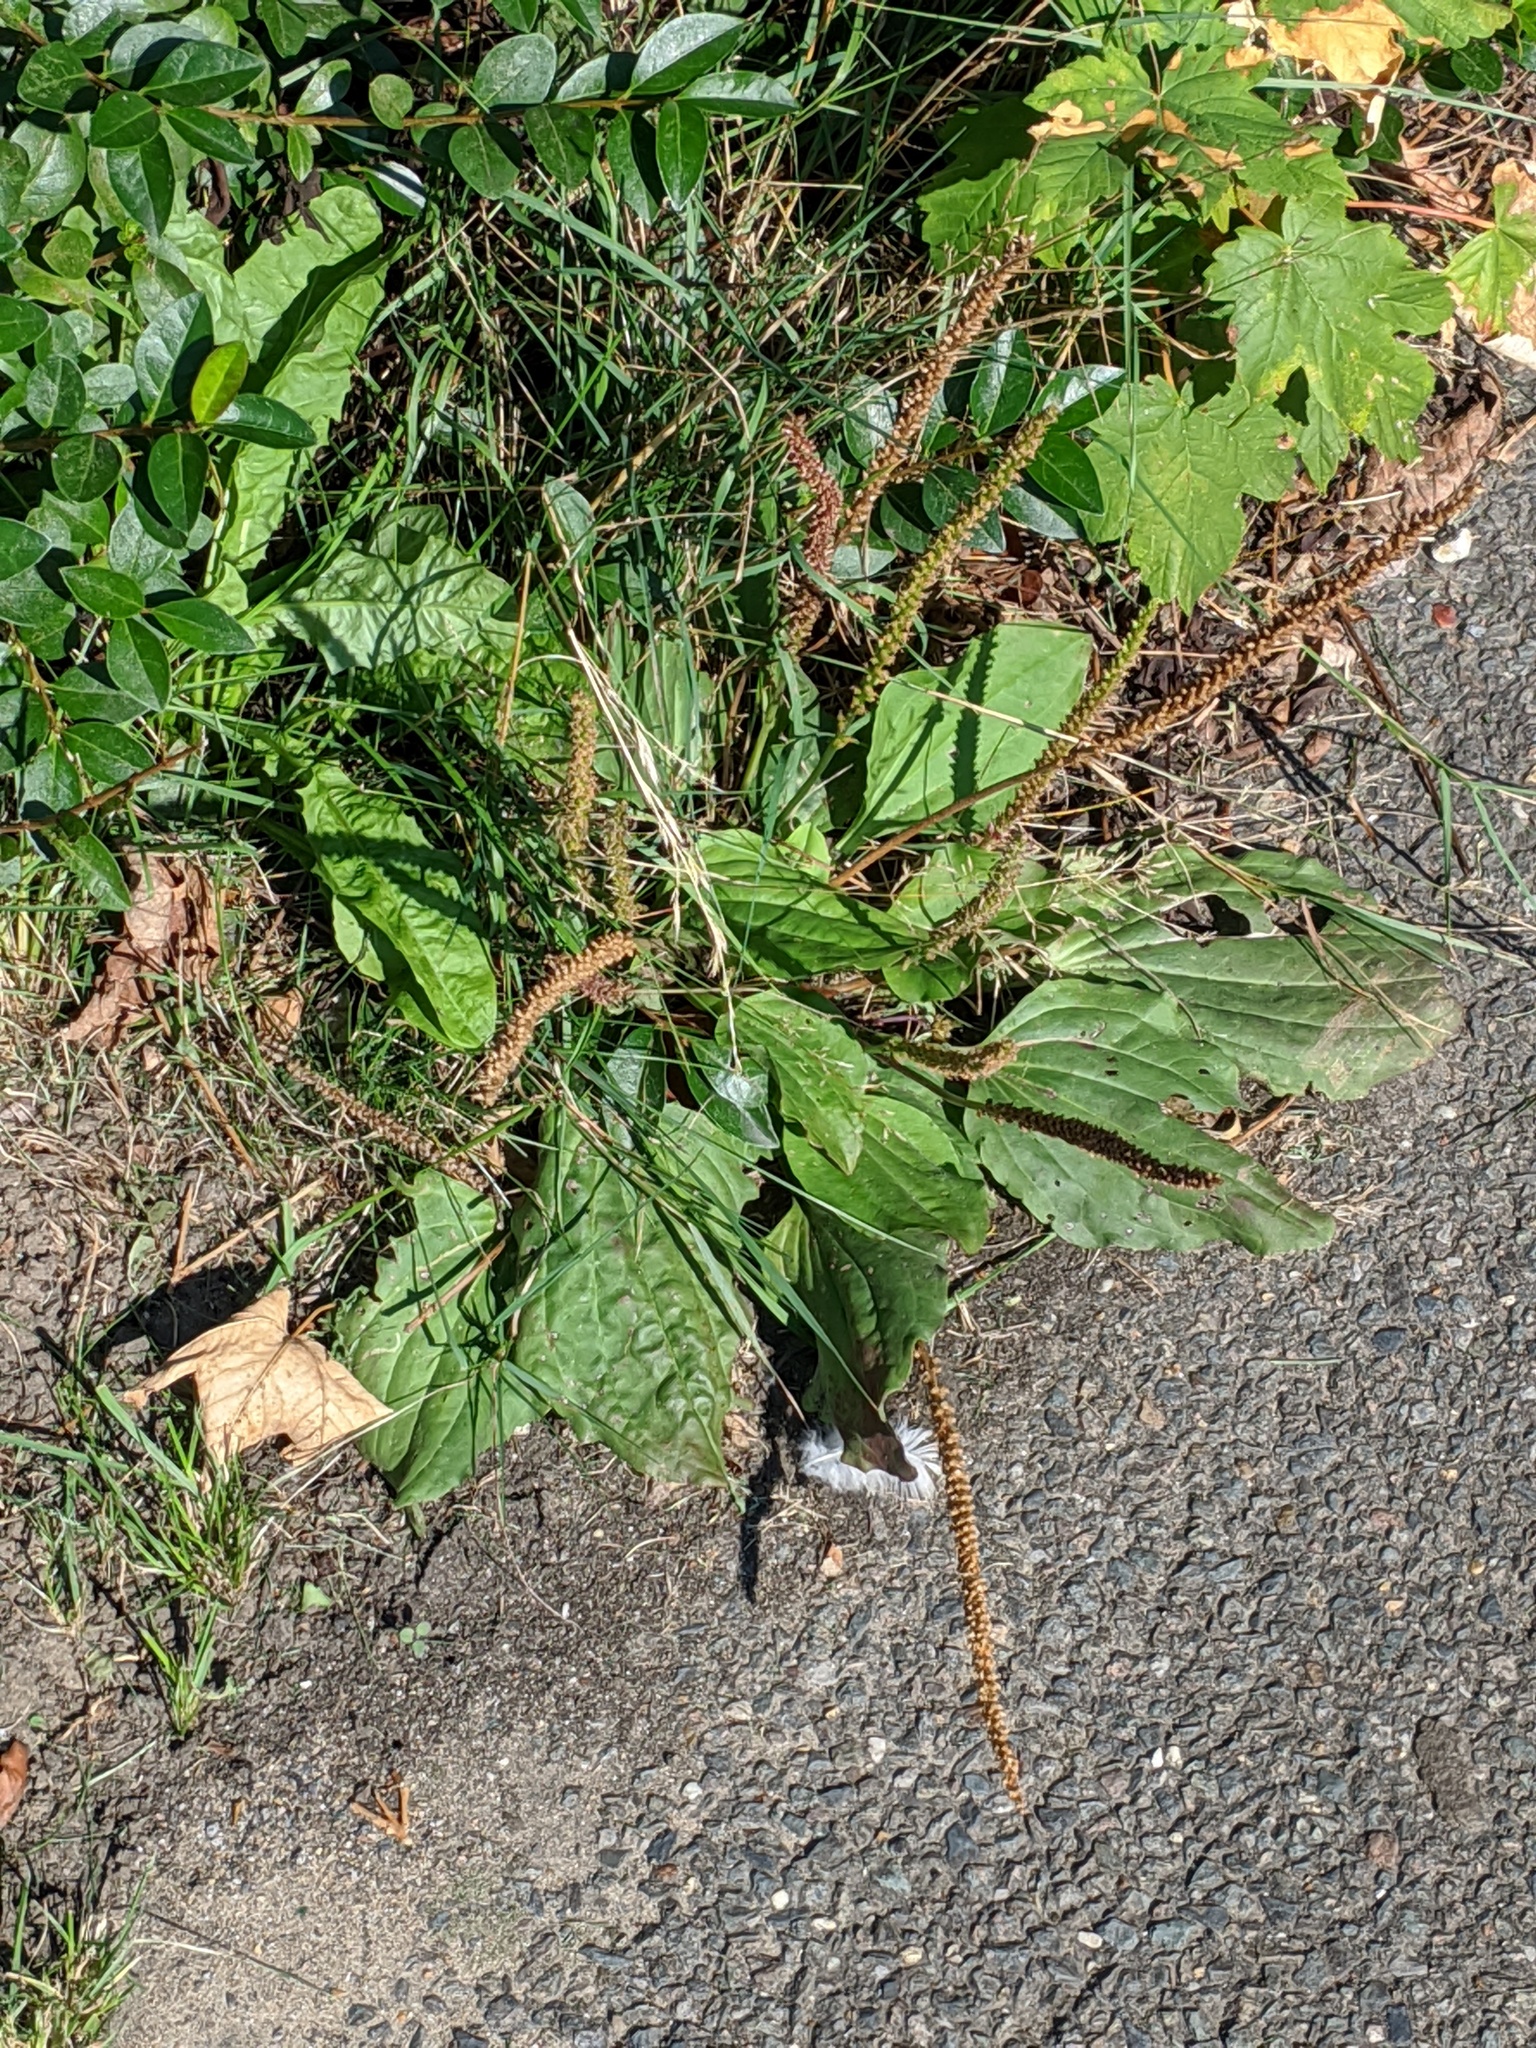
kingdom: Plantae
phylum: Tracheophyta
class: Magnoliopsida
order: Lamiales
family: Plantaginaceae
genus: Plantago
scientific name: Plantago major
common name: Common plantain
